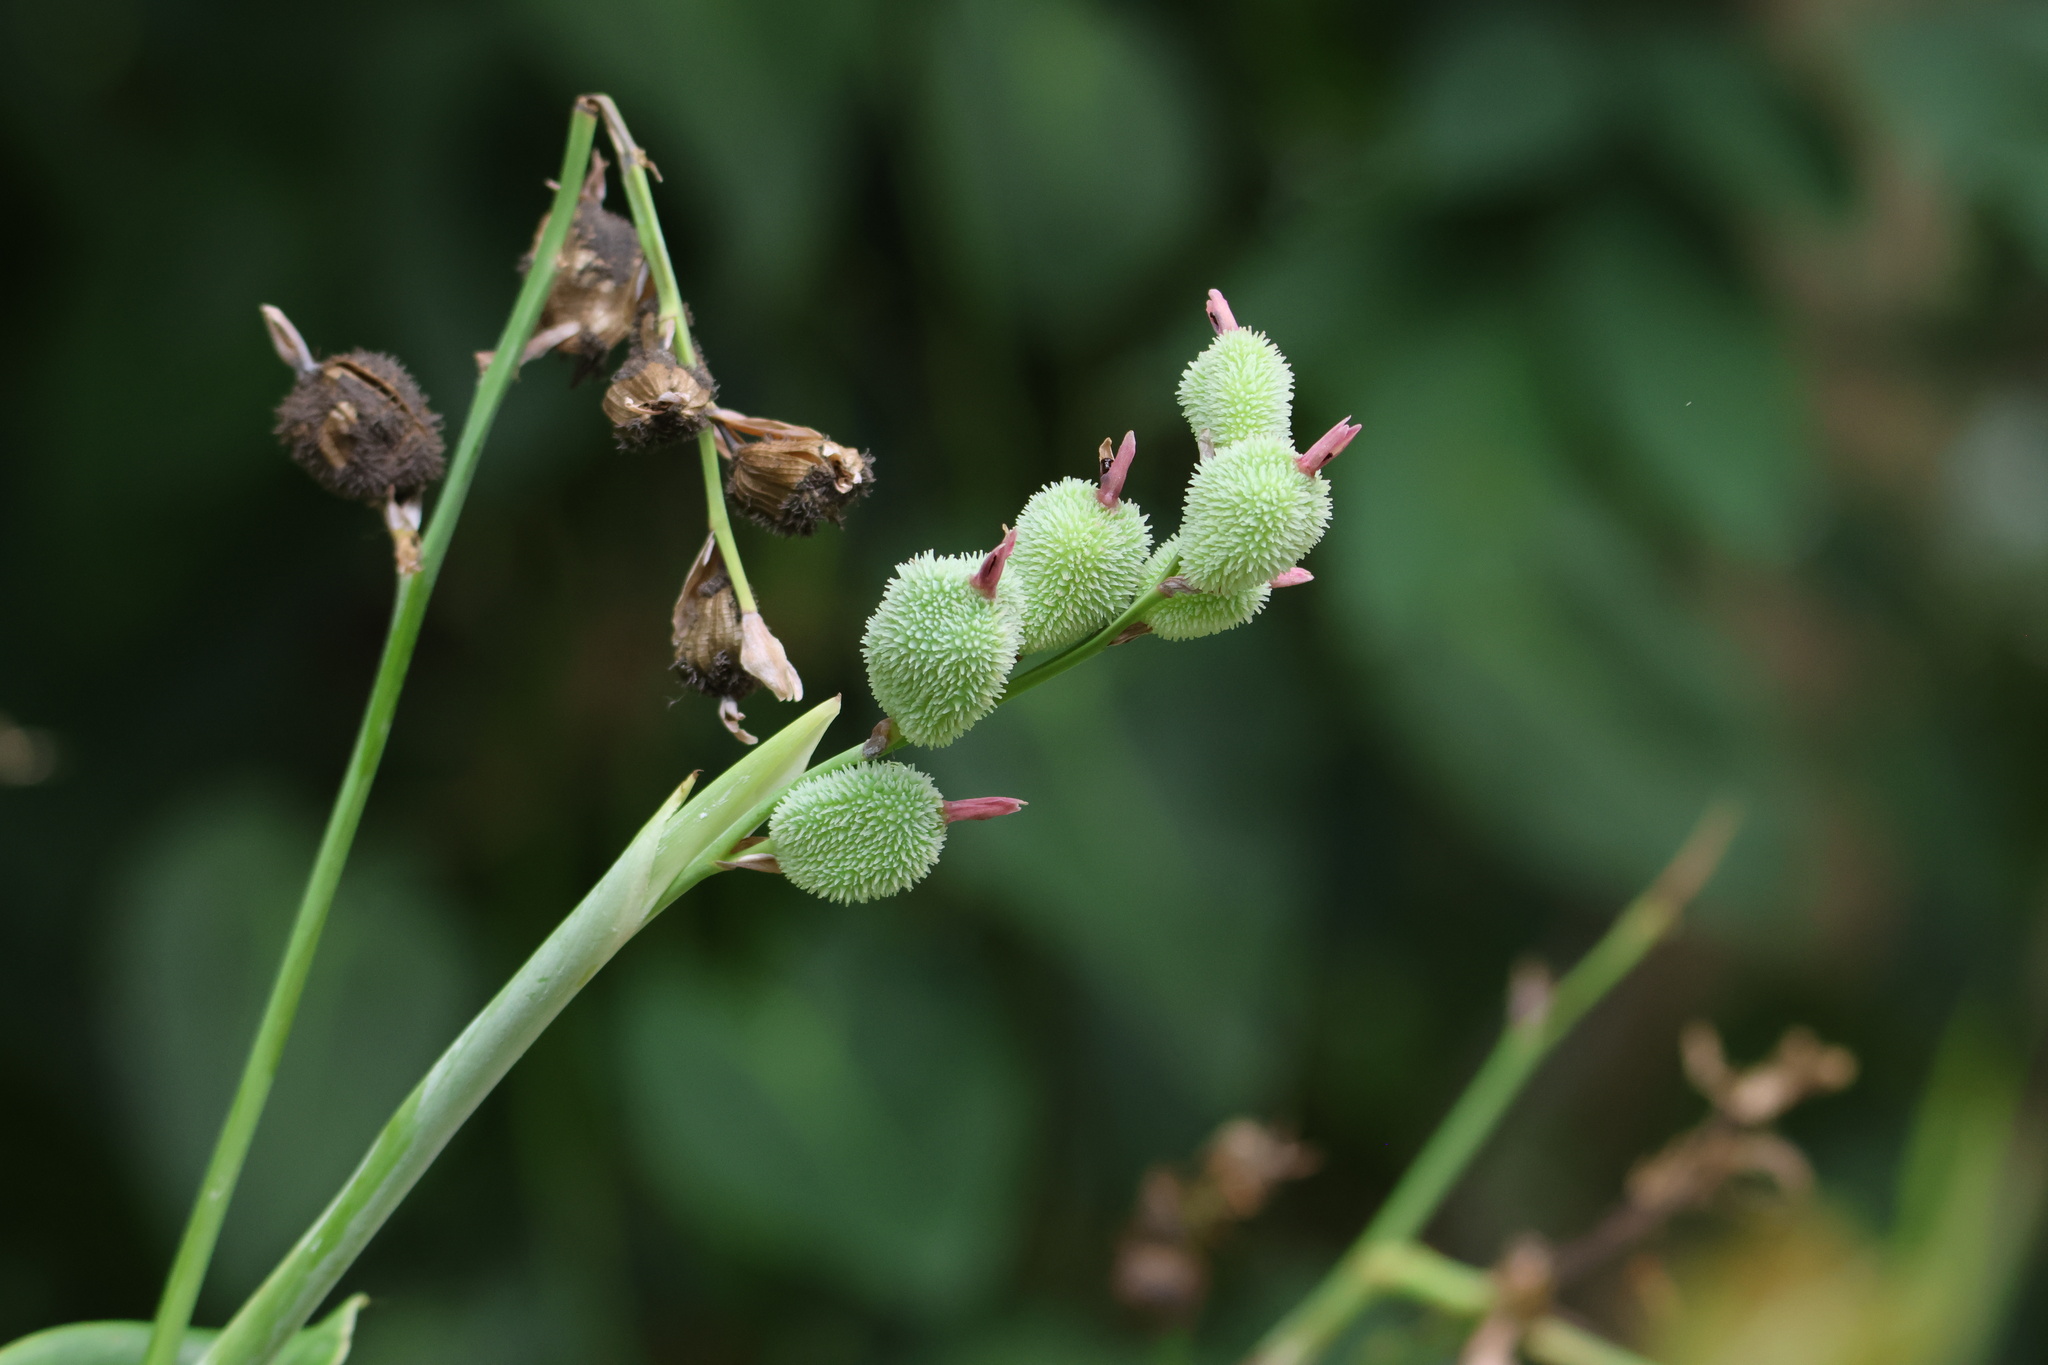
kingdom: Plantae
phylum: Tracheophyta
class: Liliopsida
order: Zingiberales
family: Cannaceae
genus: Canna
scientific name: Canna indica
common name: Indian shot
